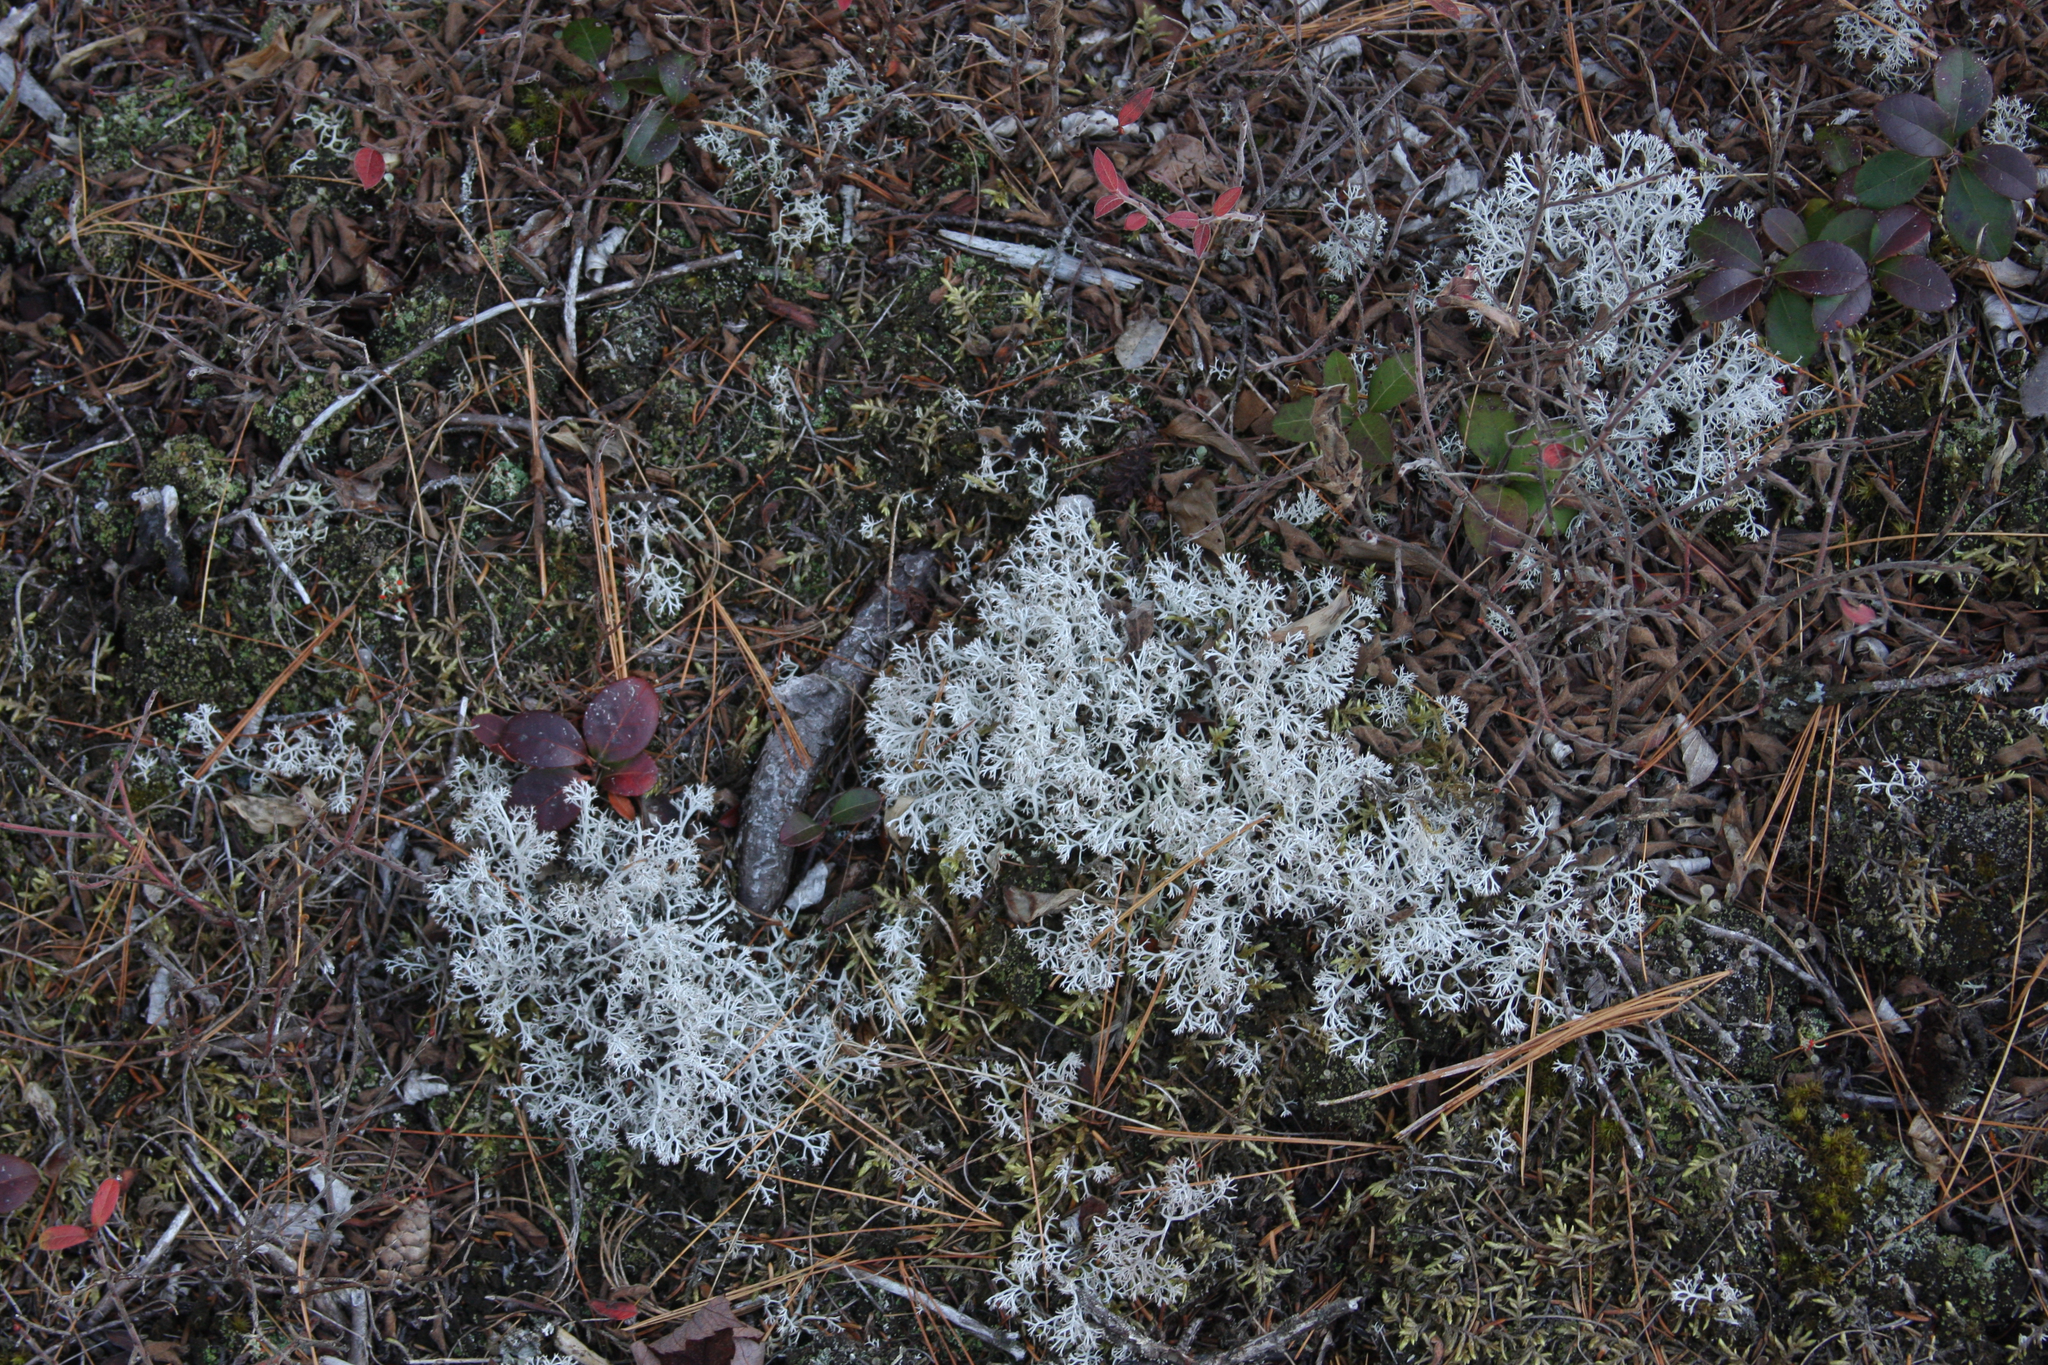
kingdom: Plantae
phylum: Tracheophyta
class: Magnoliopsida
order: Ericales
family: Ericaceae
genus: Gaultheria
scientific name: Gaultheria procumbens
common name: Checkerberry
